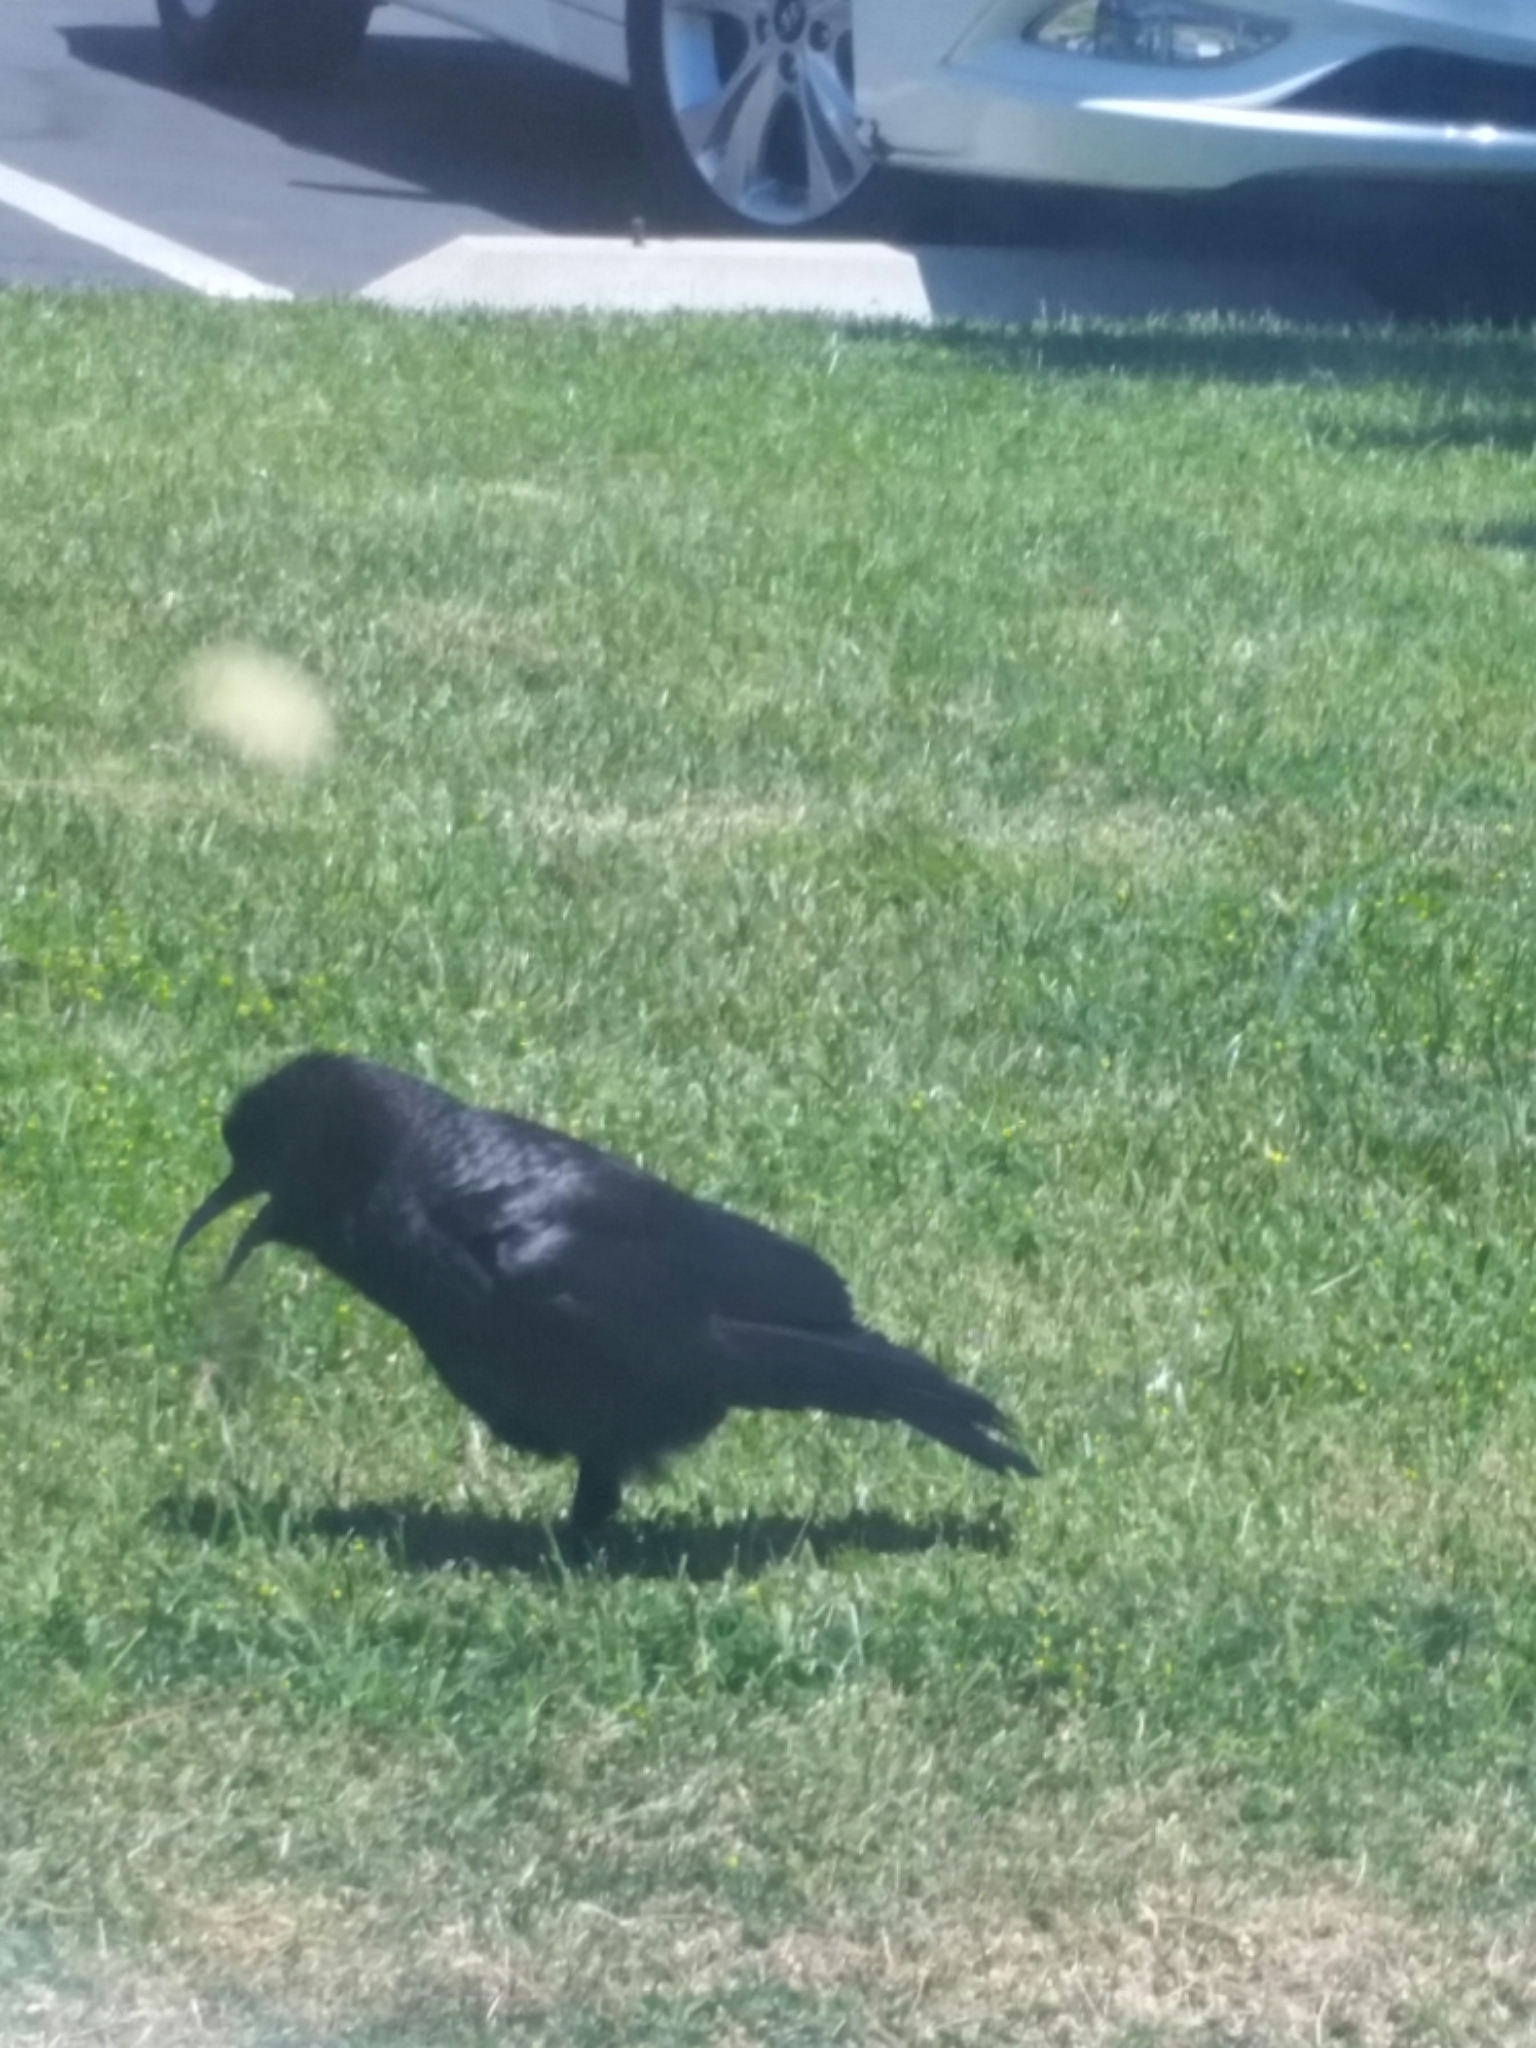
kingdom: Animalia
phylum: Chordata
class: Aves
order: Passeriformes
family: Corvidae
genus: Corvus
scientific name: Corvus brachyrhynchos
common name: American crow
